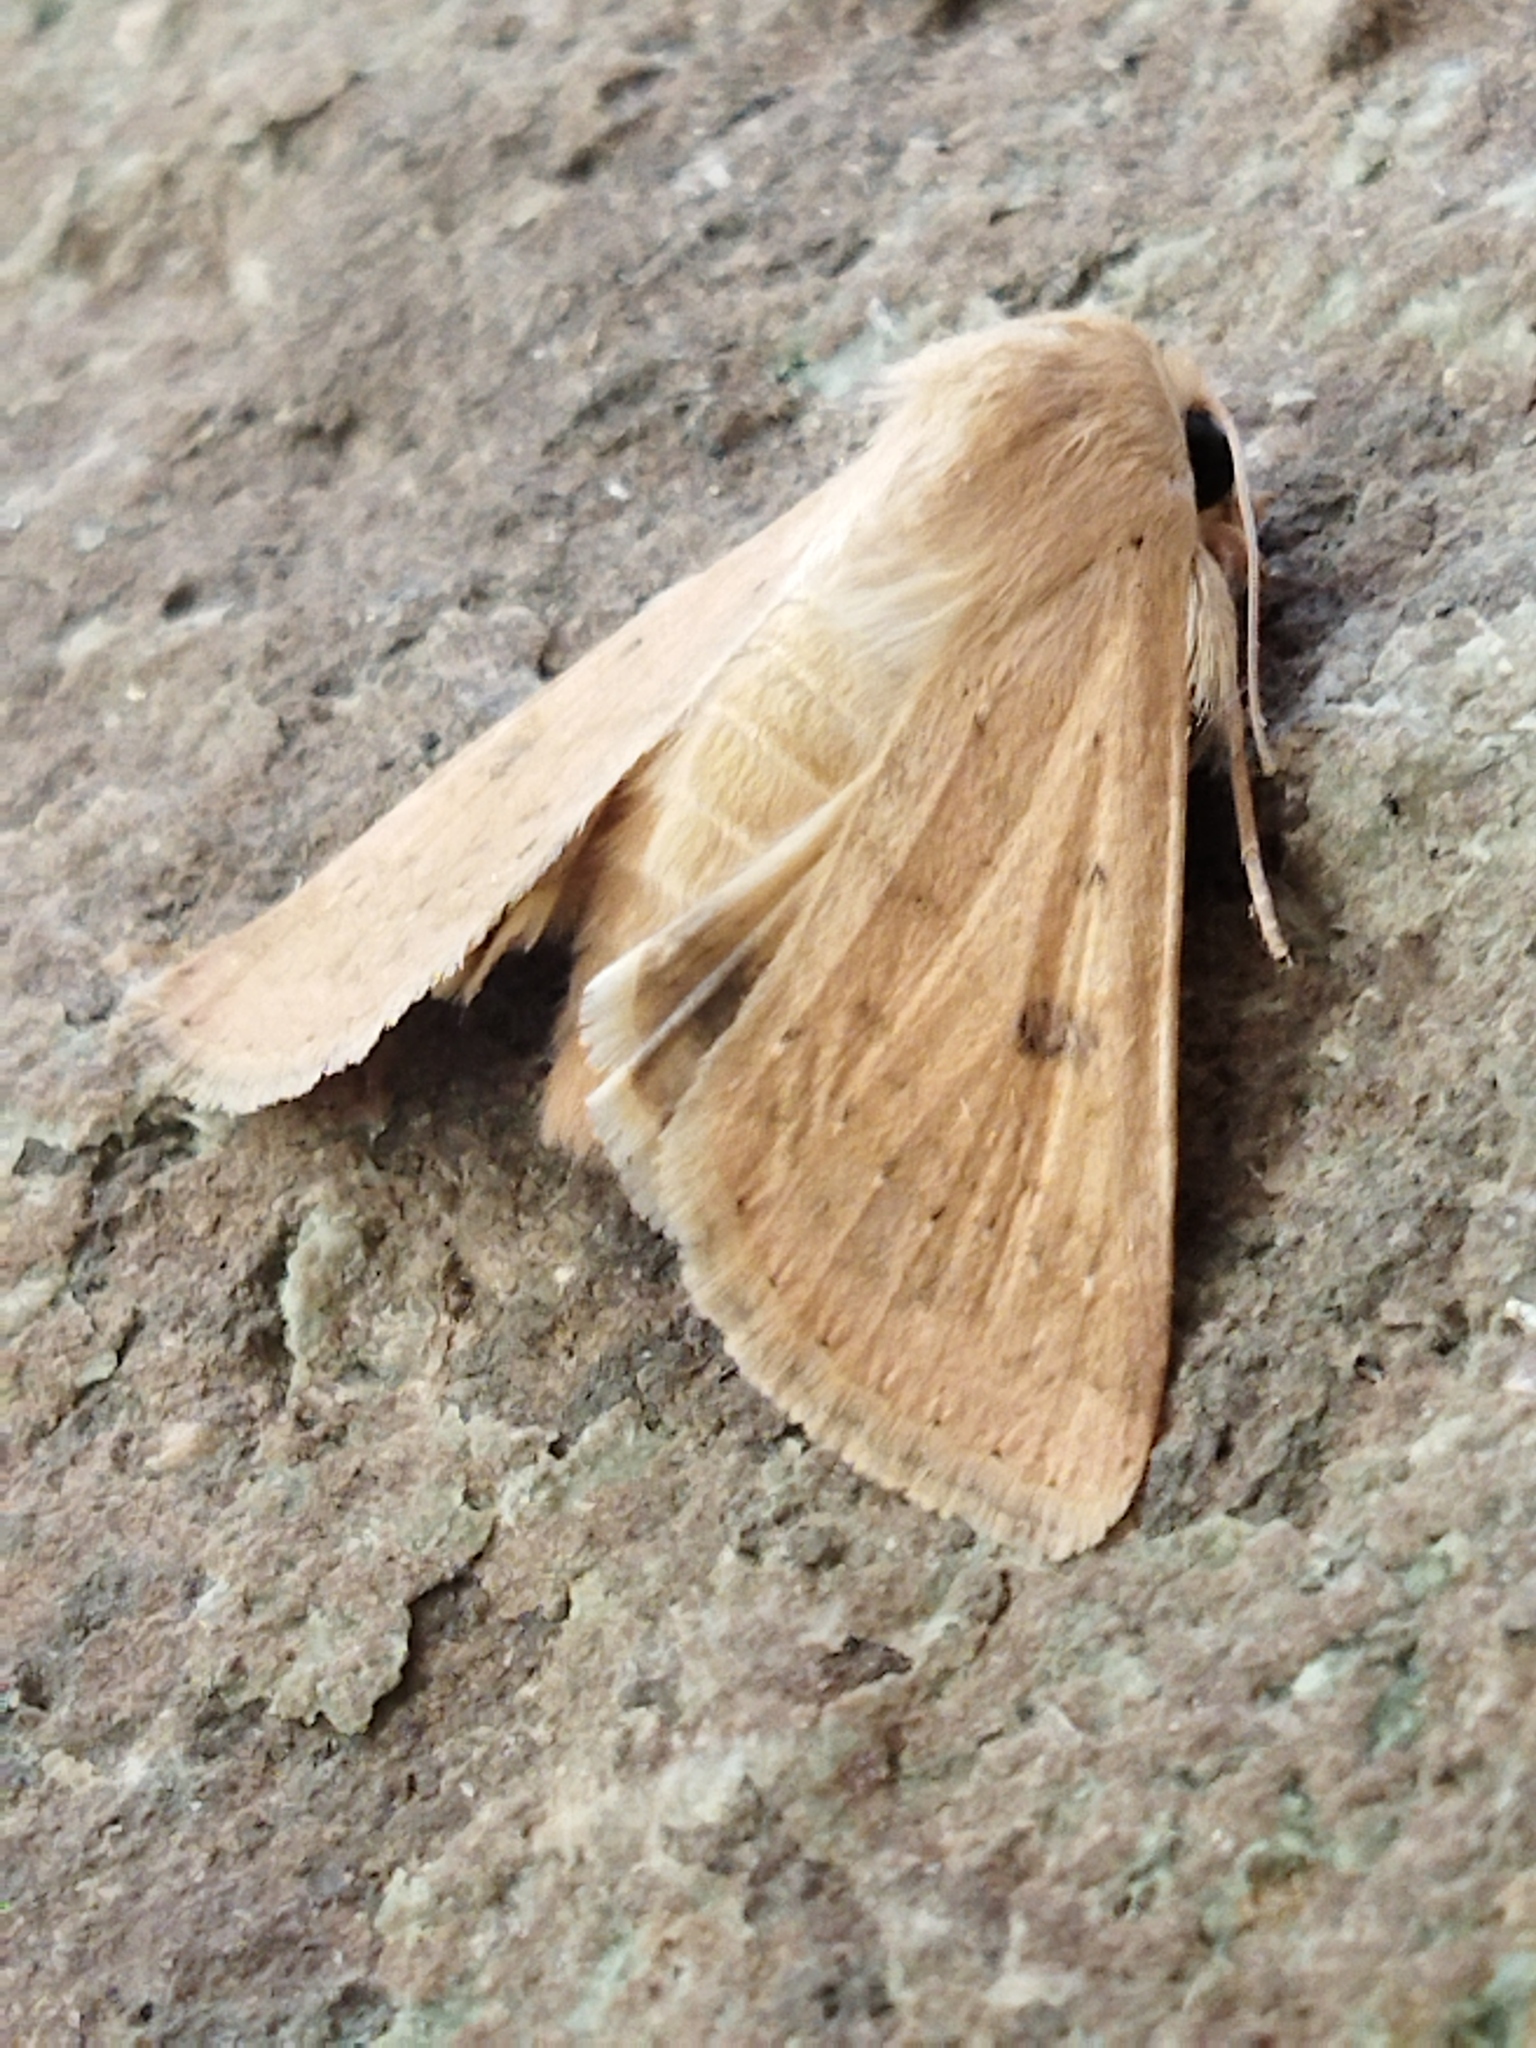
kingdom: Animalia
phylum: Arthropoda
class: Insecta
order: Lepidoptera
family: Noctuidae
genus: Helicoverpa
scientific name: Helicoverpa armigera
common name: Cotton bollworm
